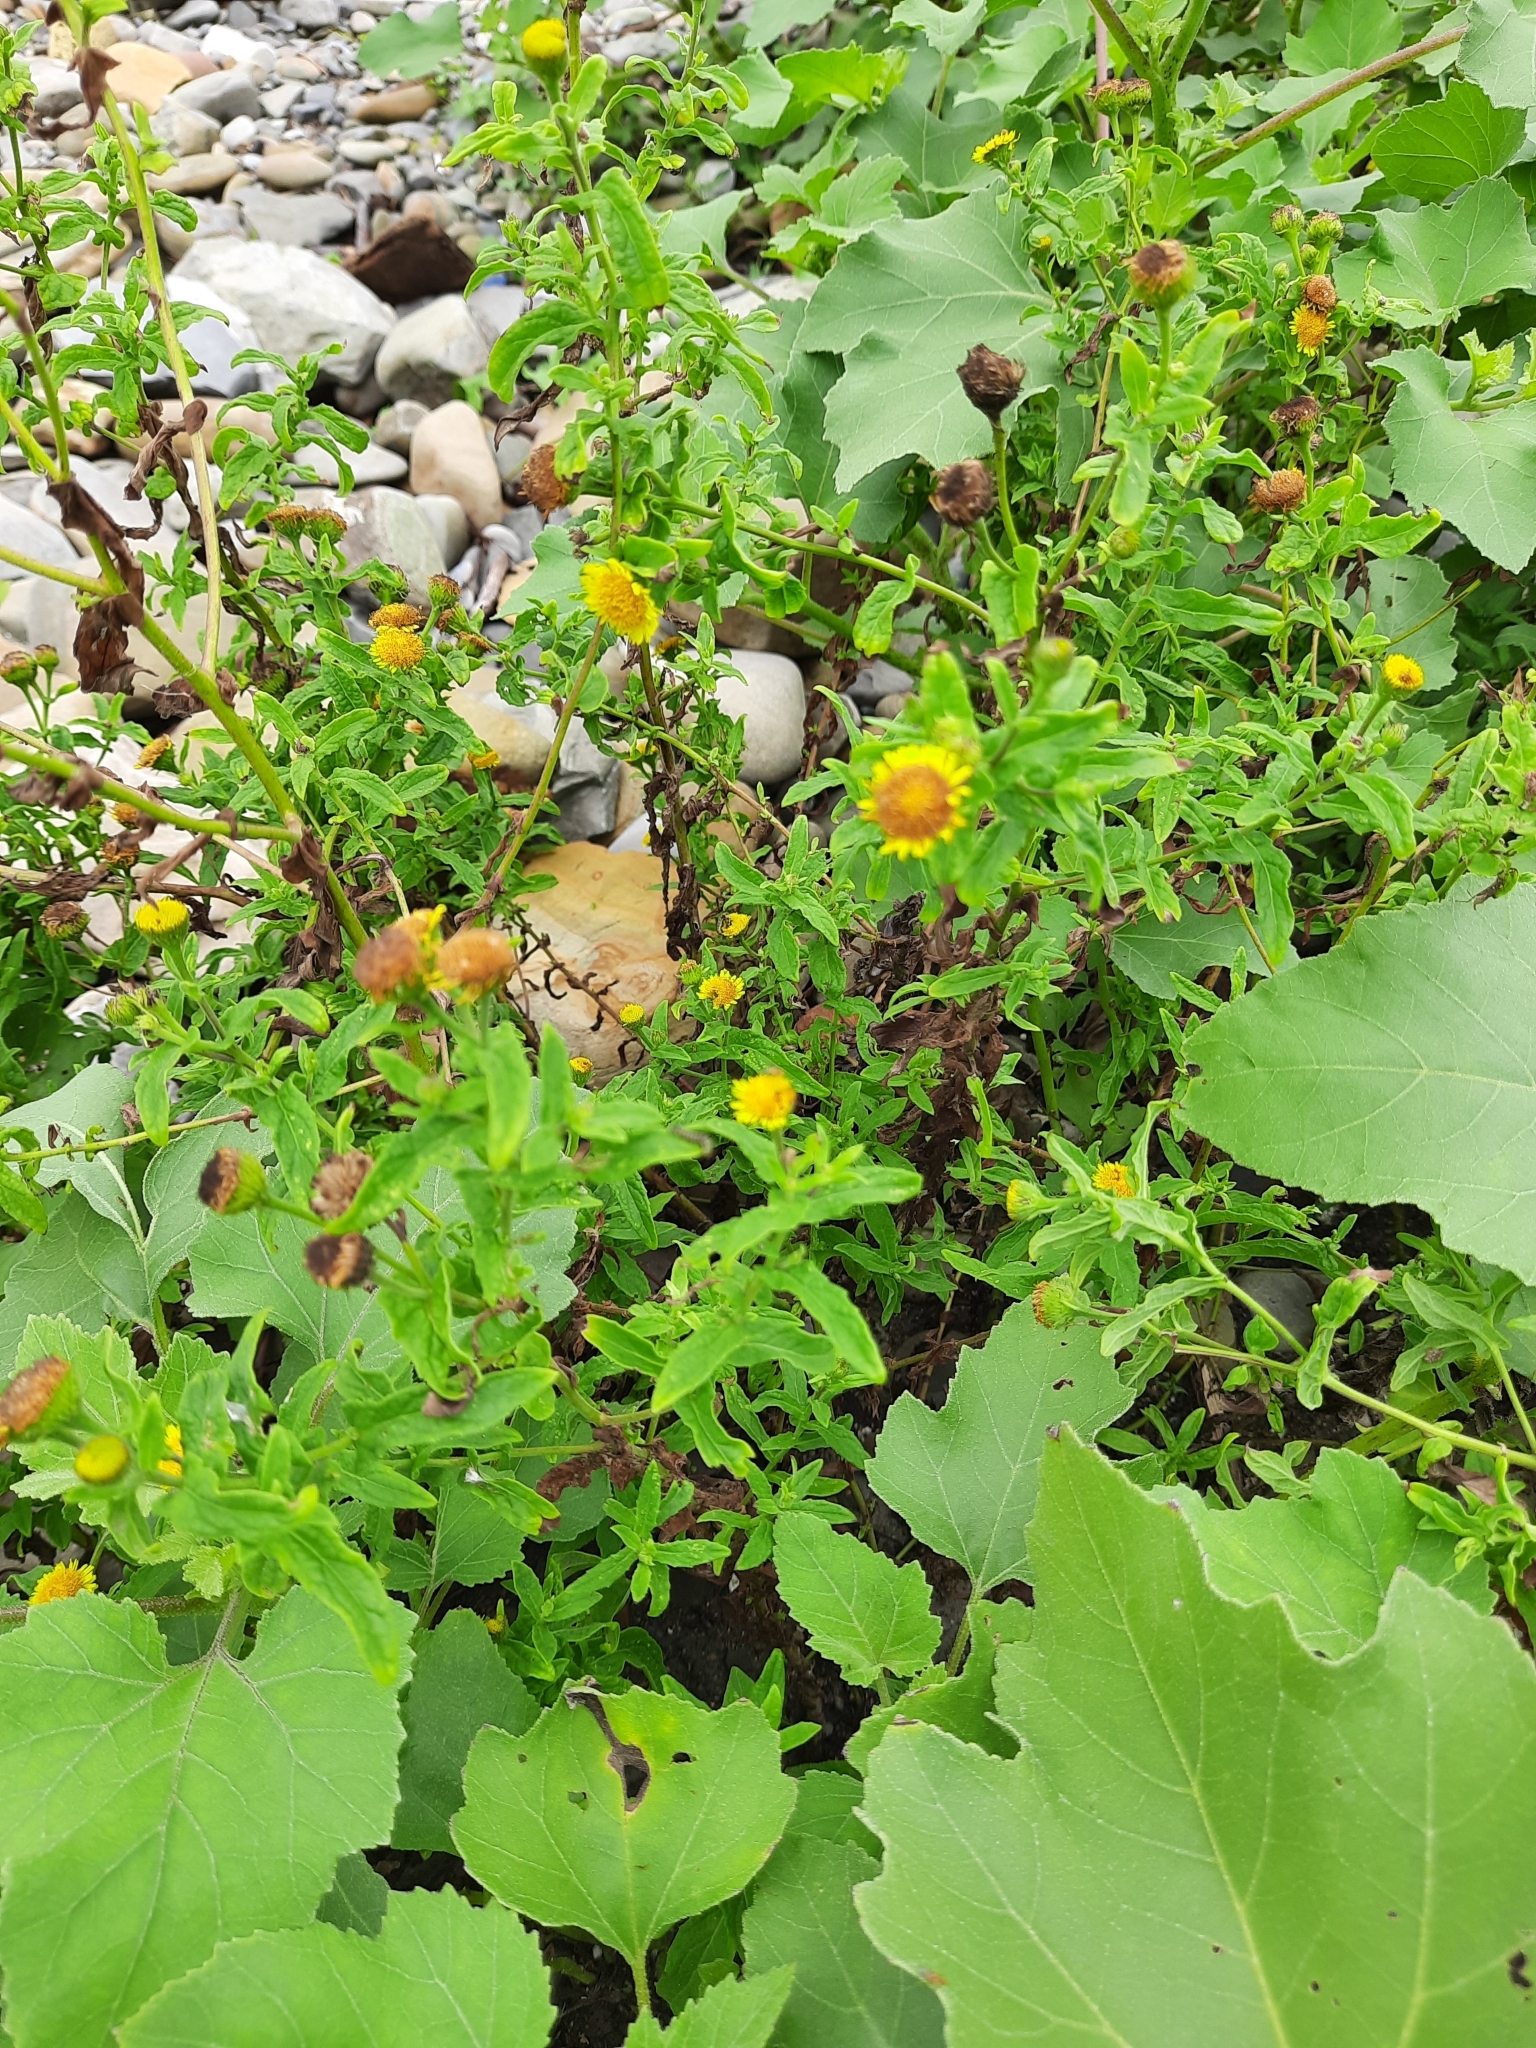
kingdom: Plantae
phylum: Tracheophyta
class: Magnoliopsida
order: Asterales
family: Asteraceae
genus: Pulicaria
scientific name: Pulicaria dysenterica
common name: Common fleabane
